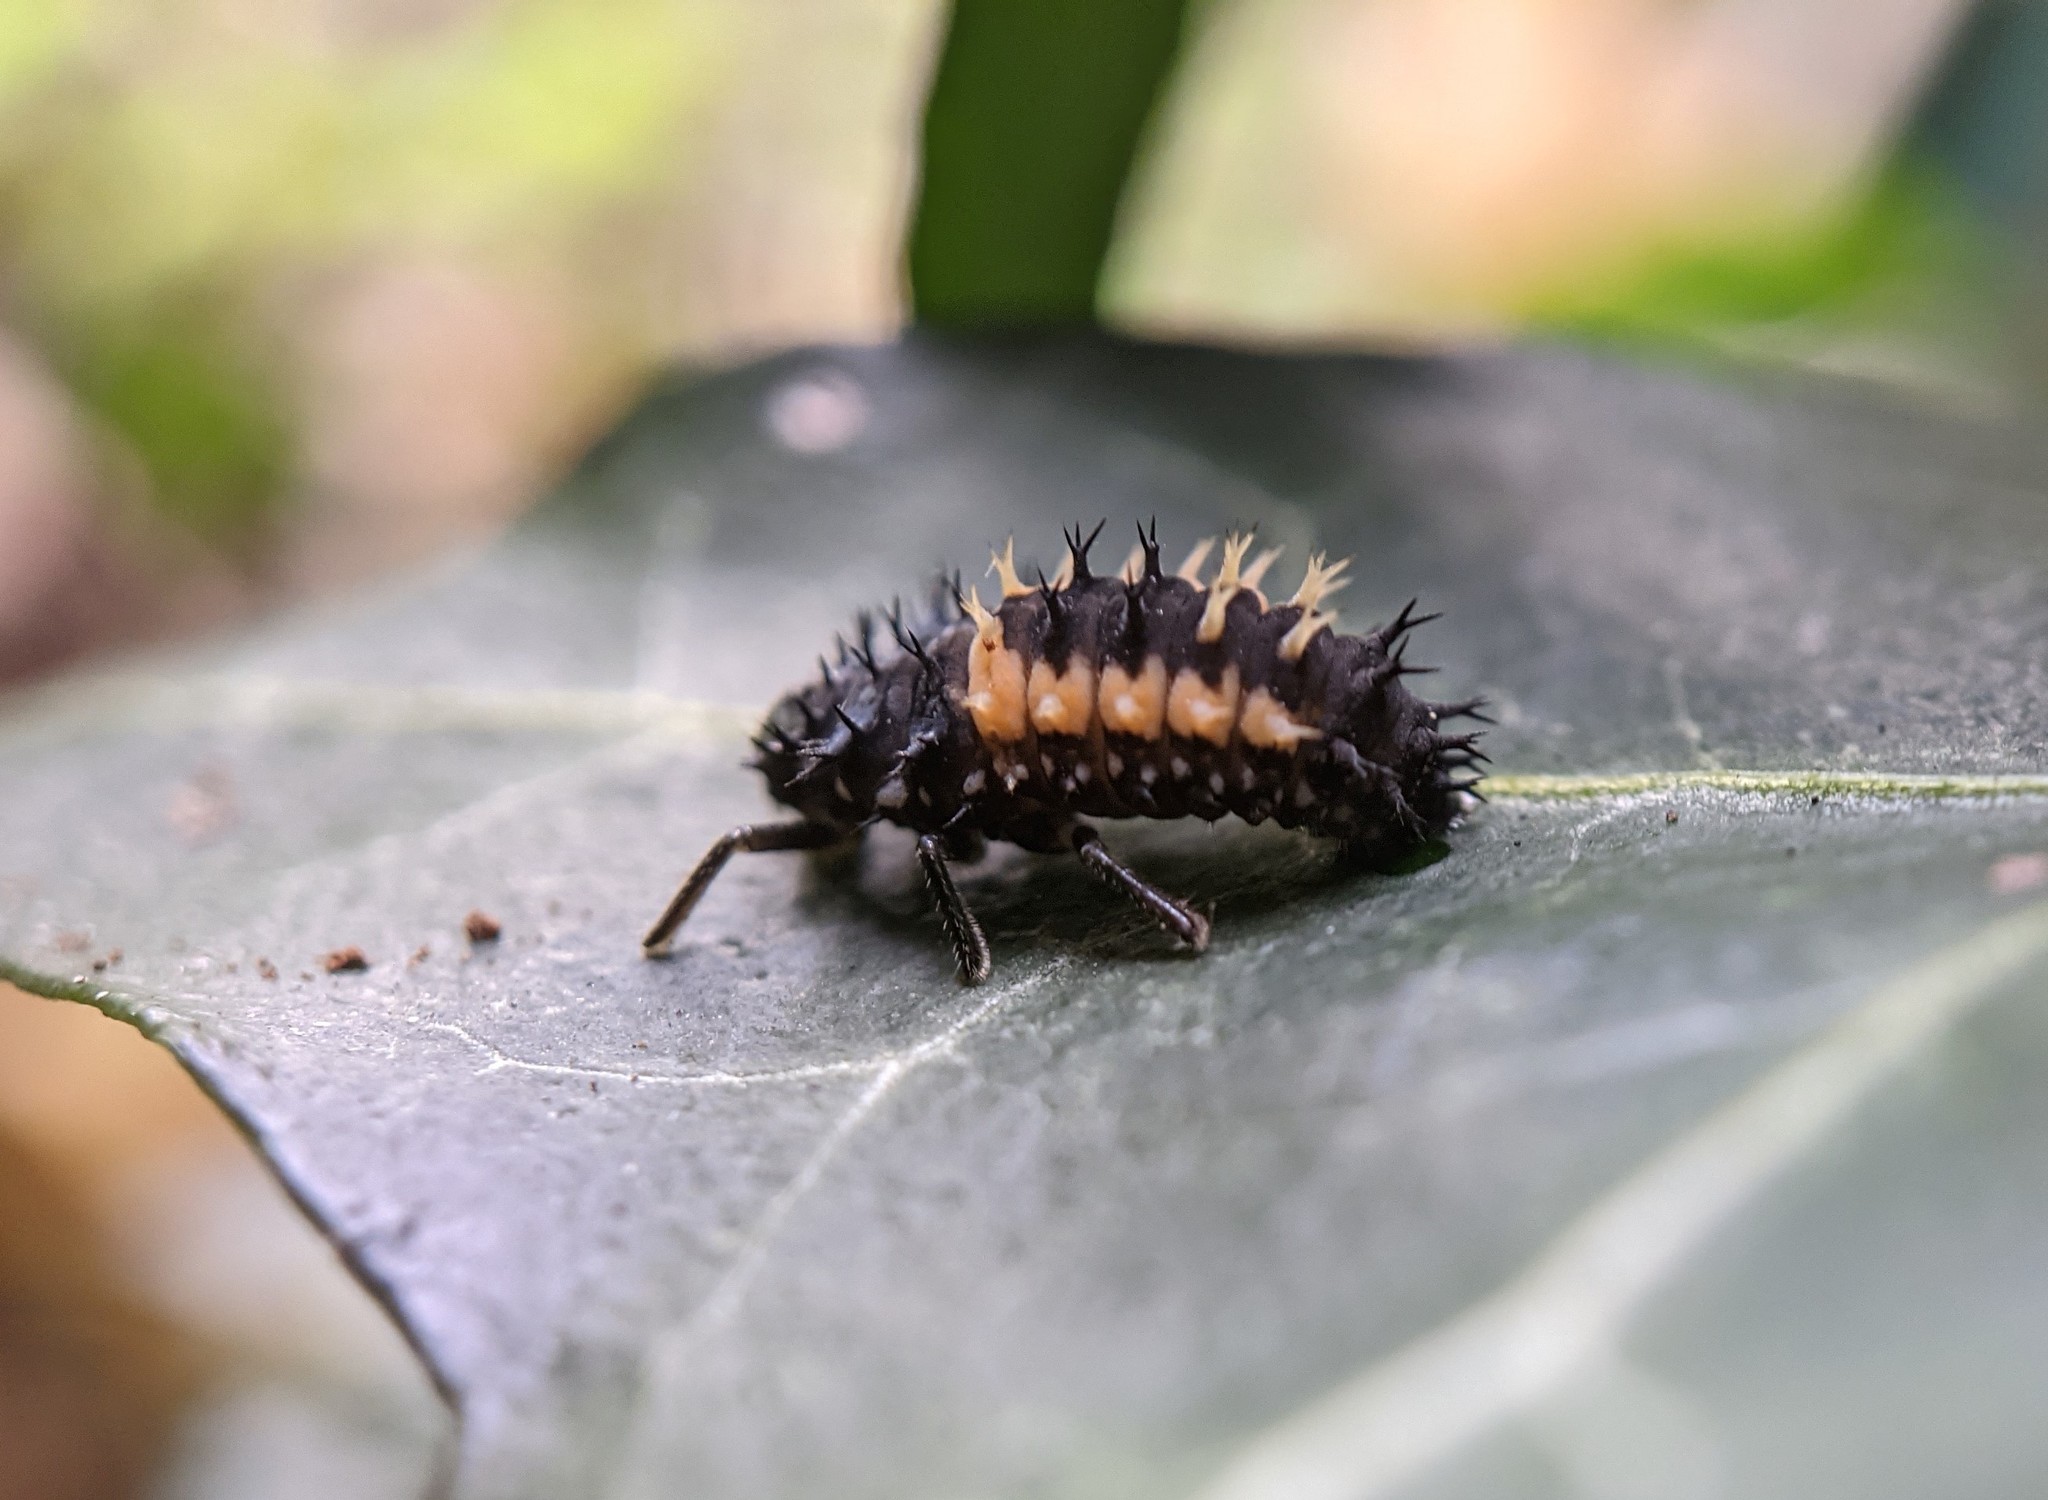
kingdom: Animalia
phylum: Arthropoda
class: Insecta
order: Coleoptera
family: Coccinellidae
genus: Harmonia
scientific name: Harmonia axyridis
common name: Harlequin ladybird
